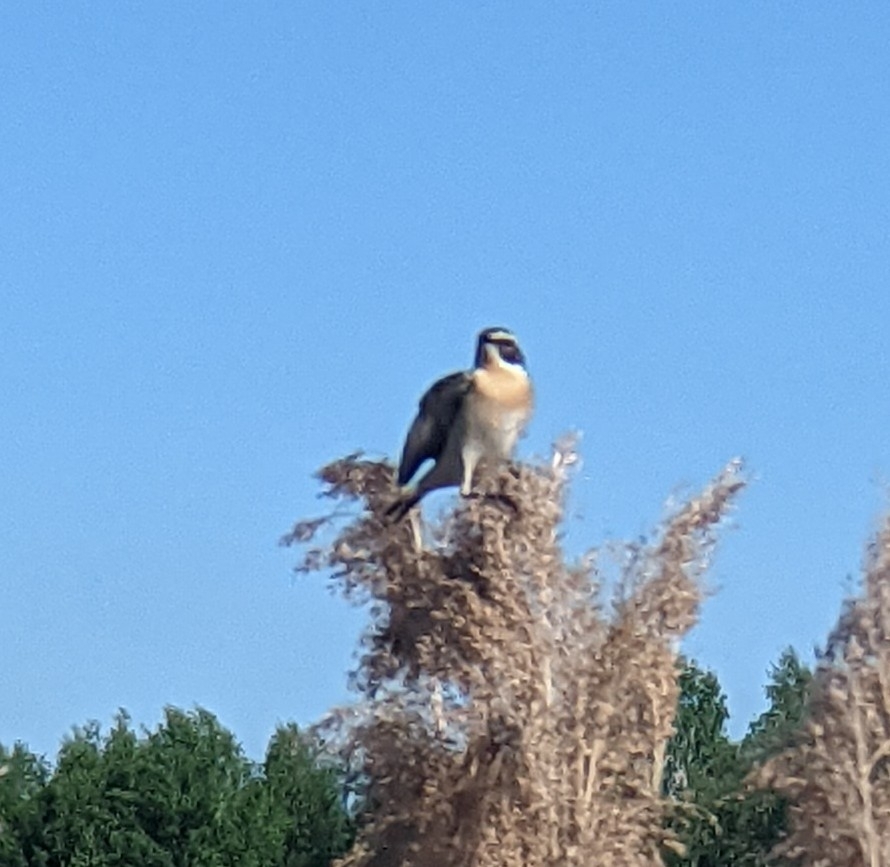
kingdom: Animalia
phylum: Chordata
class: Aves
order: Passeriformes
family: Muscicapidae
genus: Saxicola
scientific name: Saxicola rubetra
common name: Whinchat
